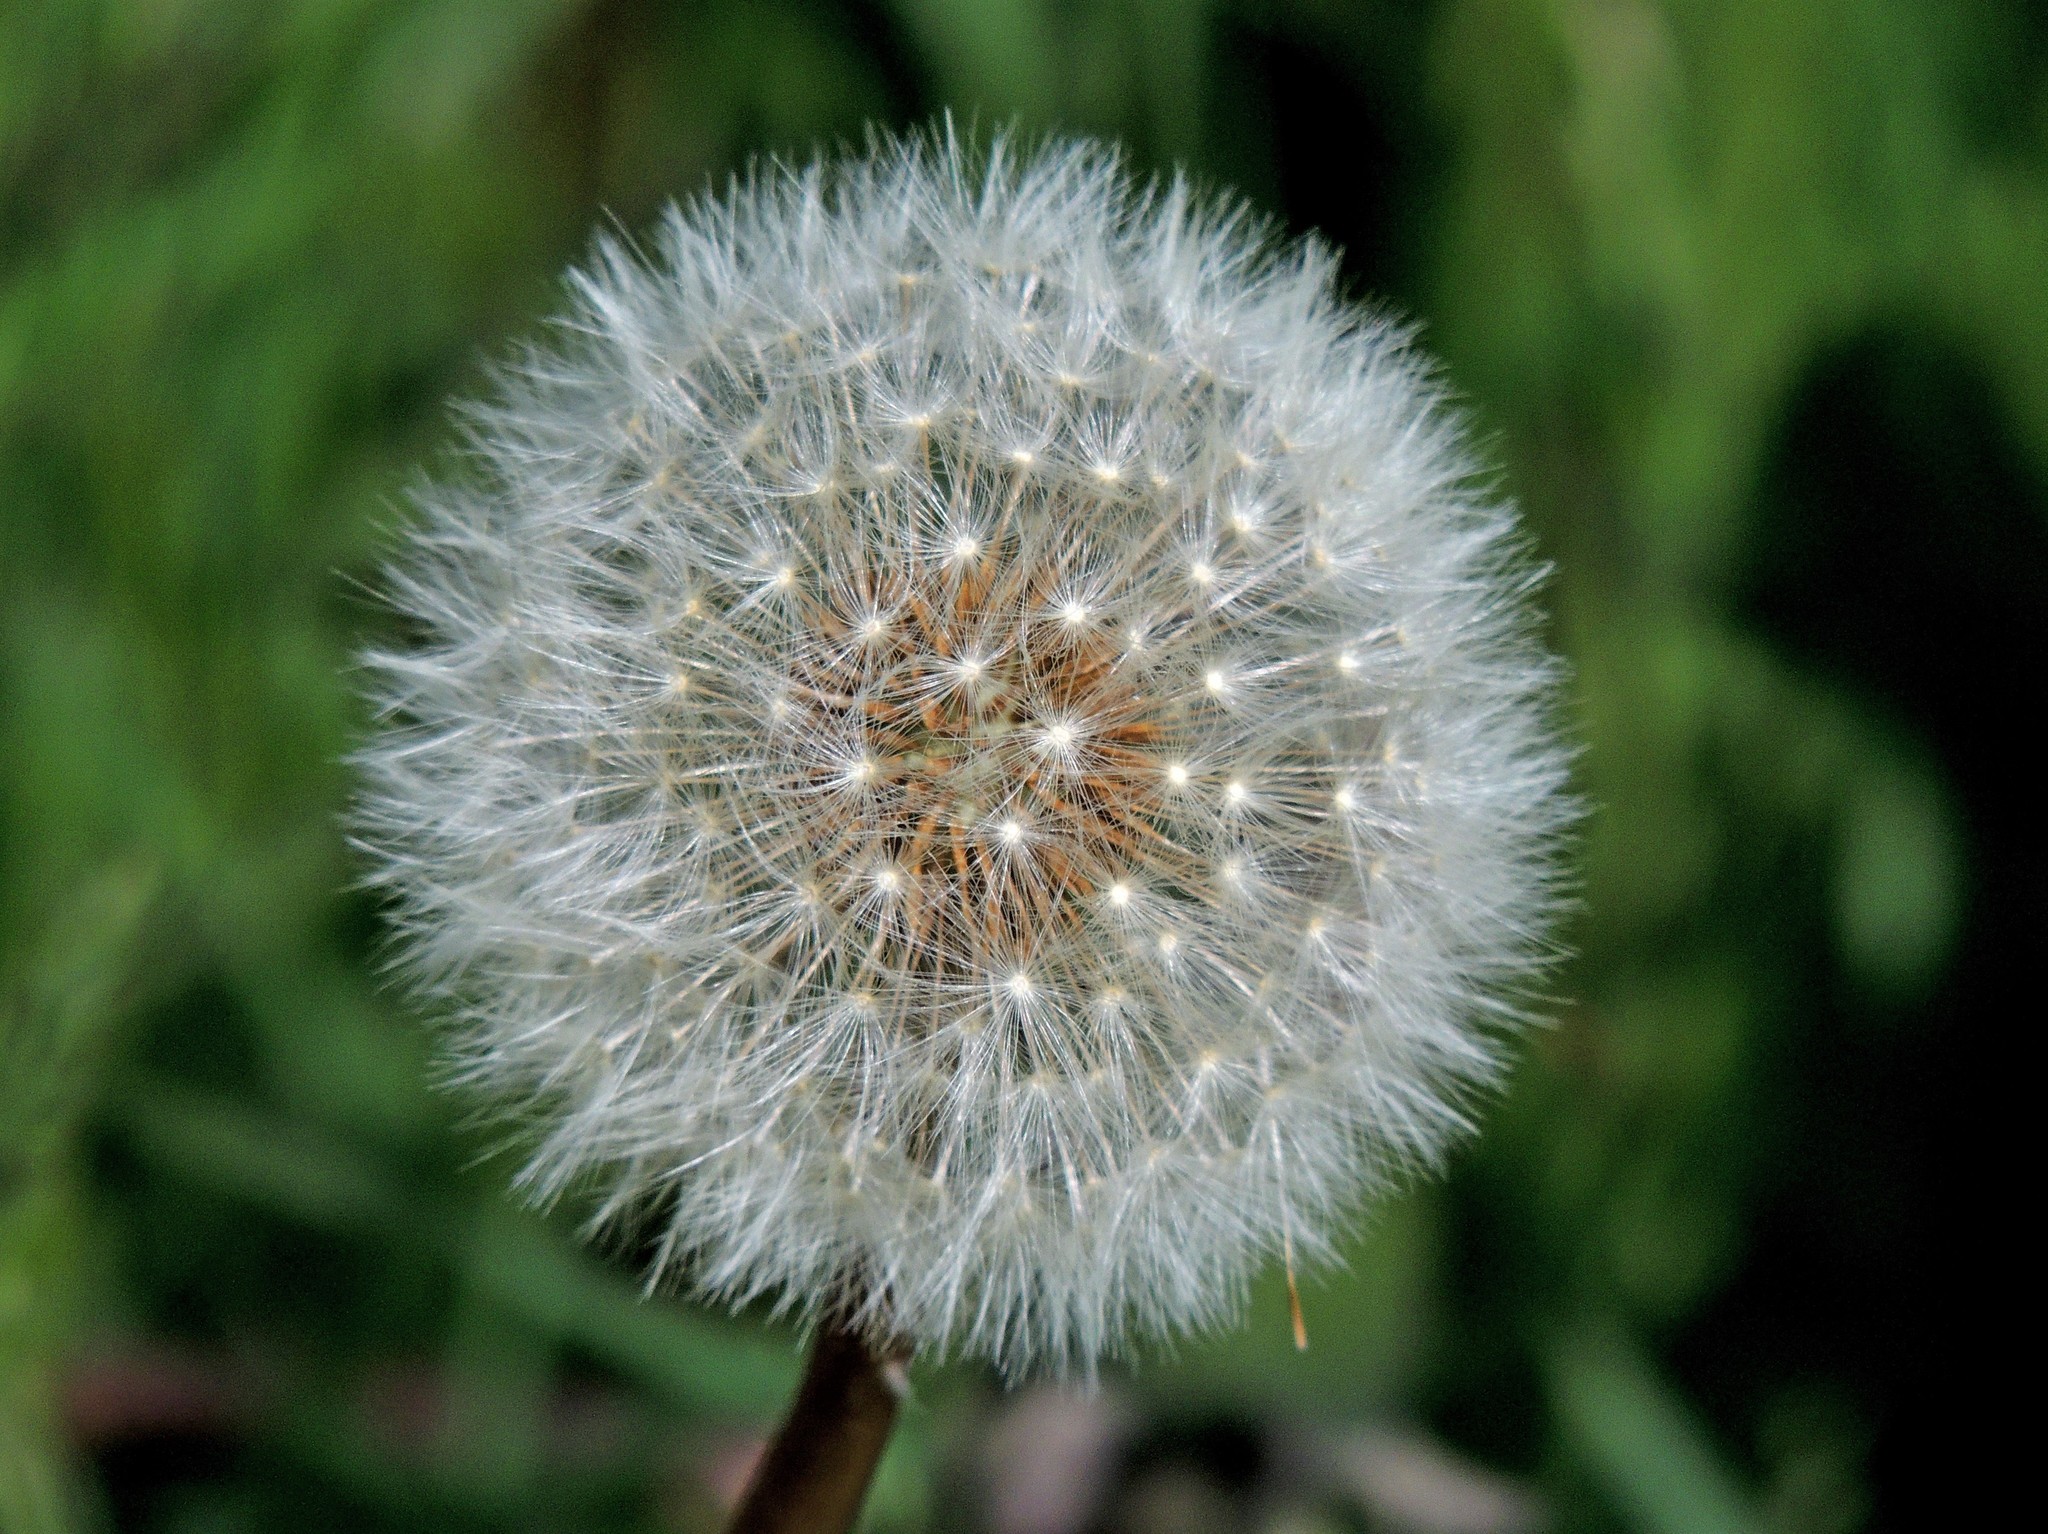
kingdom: Plantae
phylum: Tracheophyta
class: Magnoliopsida
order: Asterales
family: Asteraceae
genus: Taraxacum
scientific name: Taraxacum officinale
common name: Common dandelion
